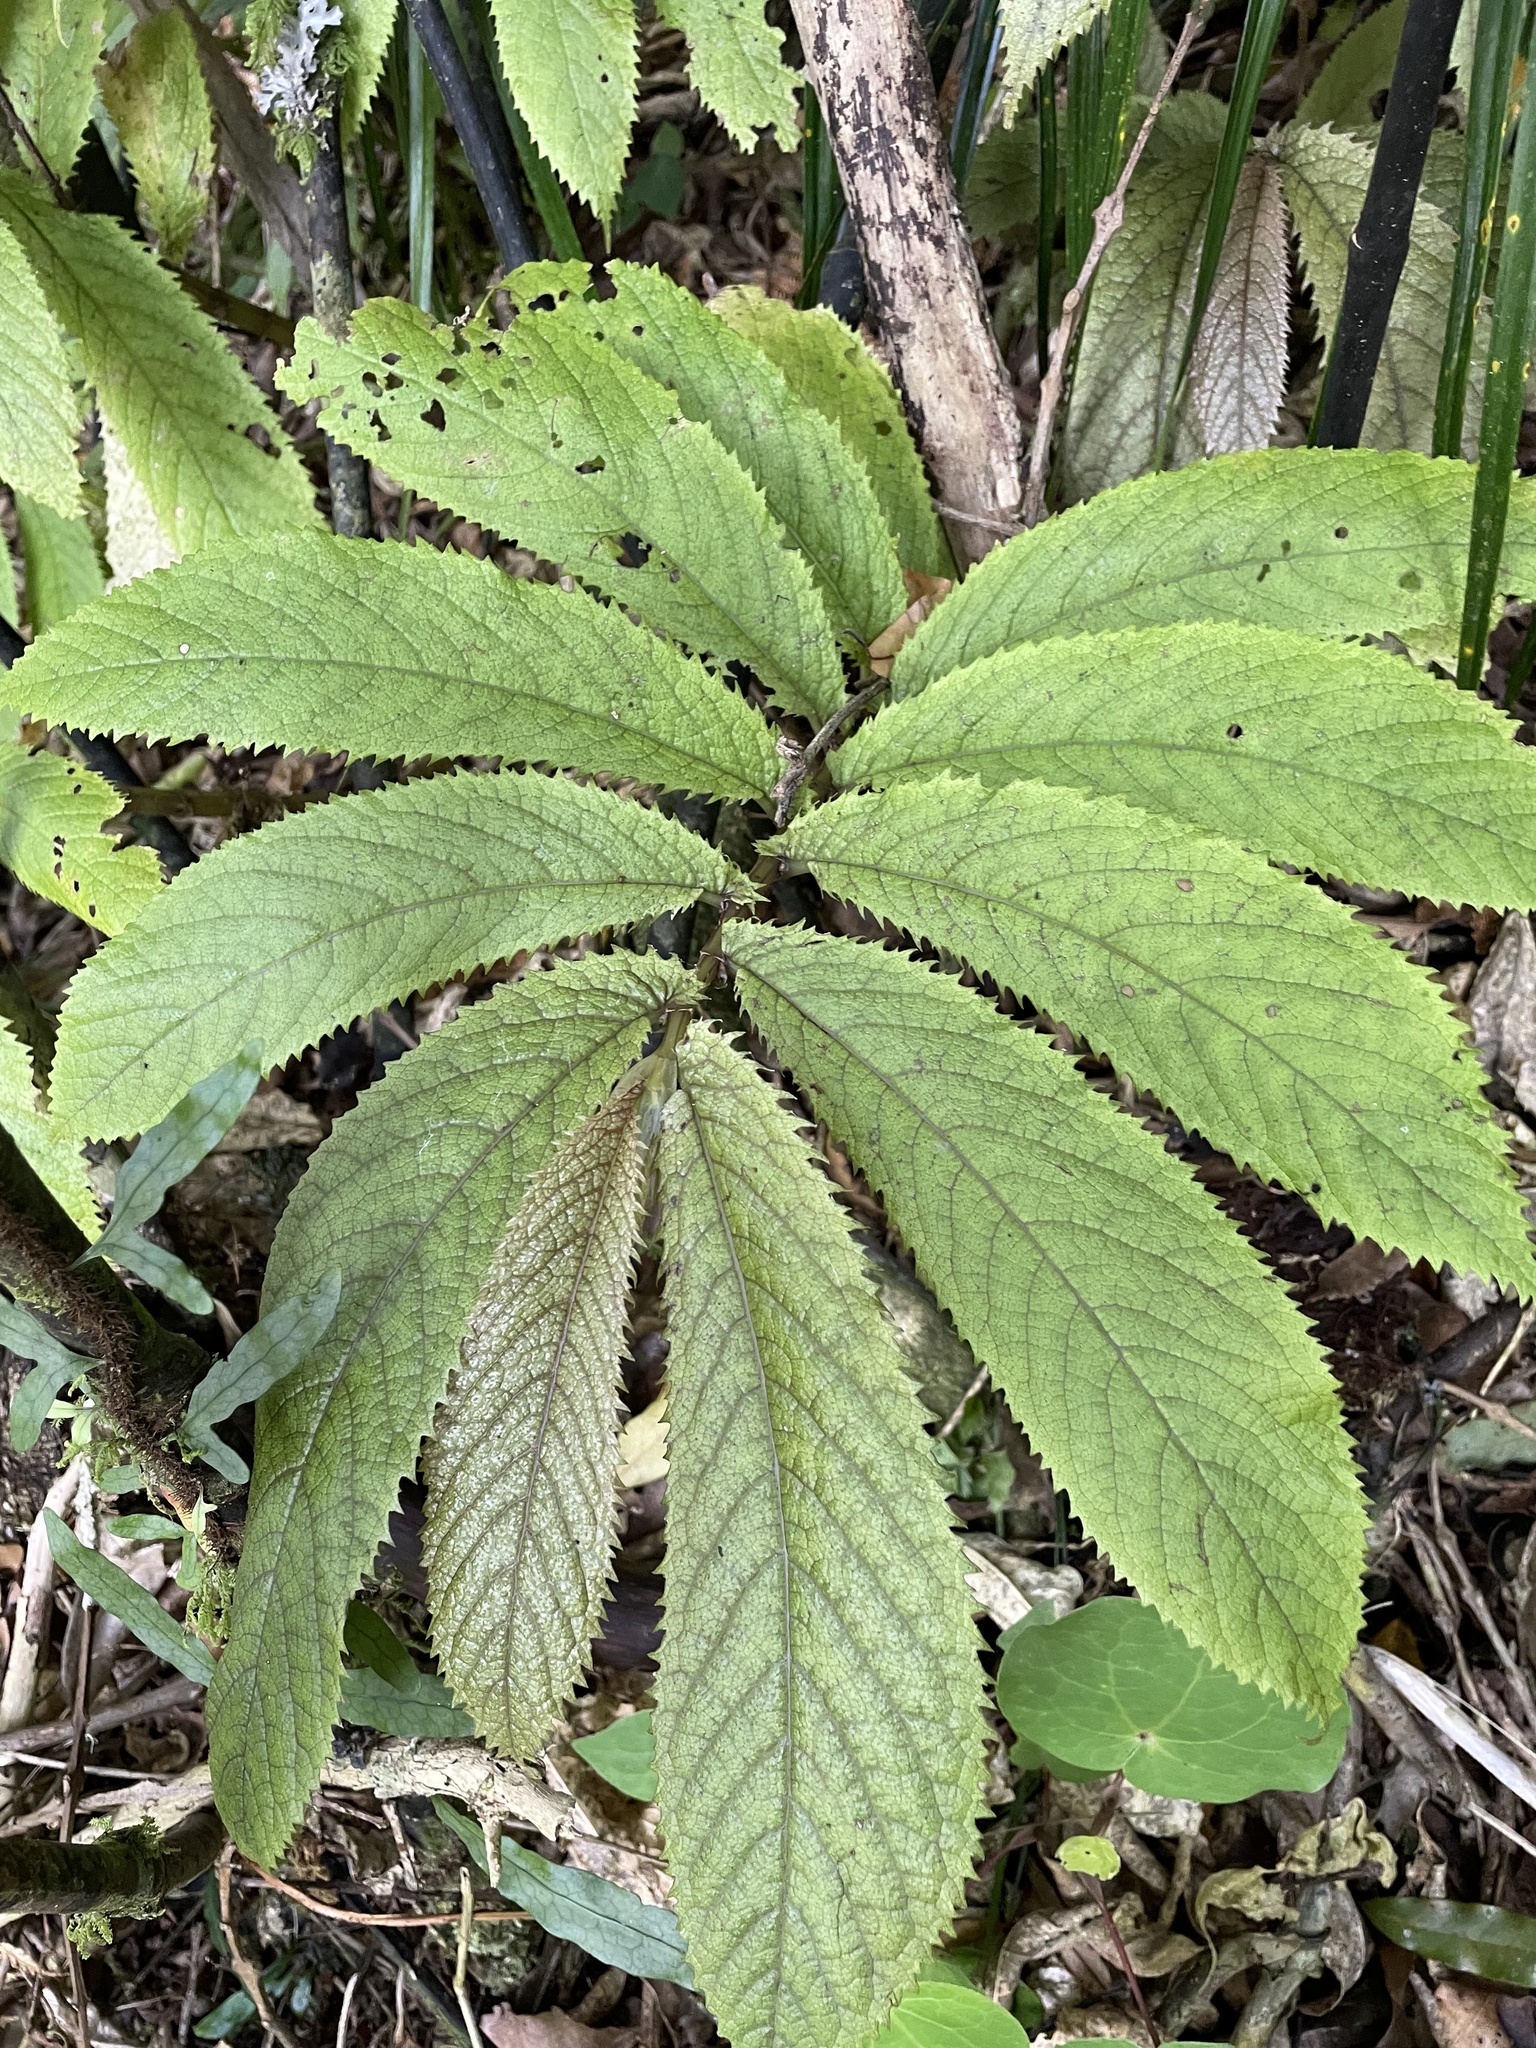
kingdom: Plantae
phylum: Tracheophyta
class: Magnoliopsida
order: Rosales
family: Urticaceae
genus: Elatostema
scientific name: Elatostema rugosum
